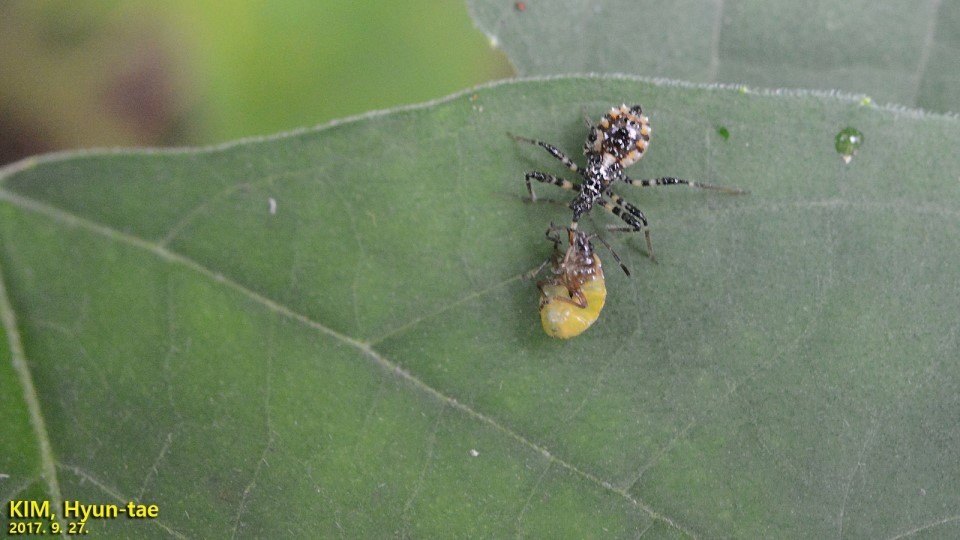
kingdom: Animalia
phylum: Arthropoda
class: Insecta
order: Hemiptera
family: Reduviidae
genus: Sphedanolestes
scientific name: Sphedanolestes impressicollis
